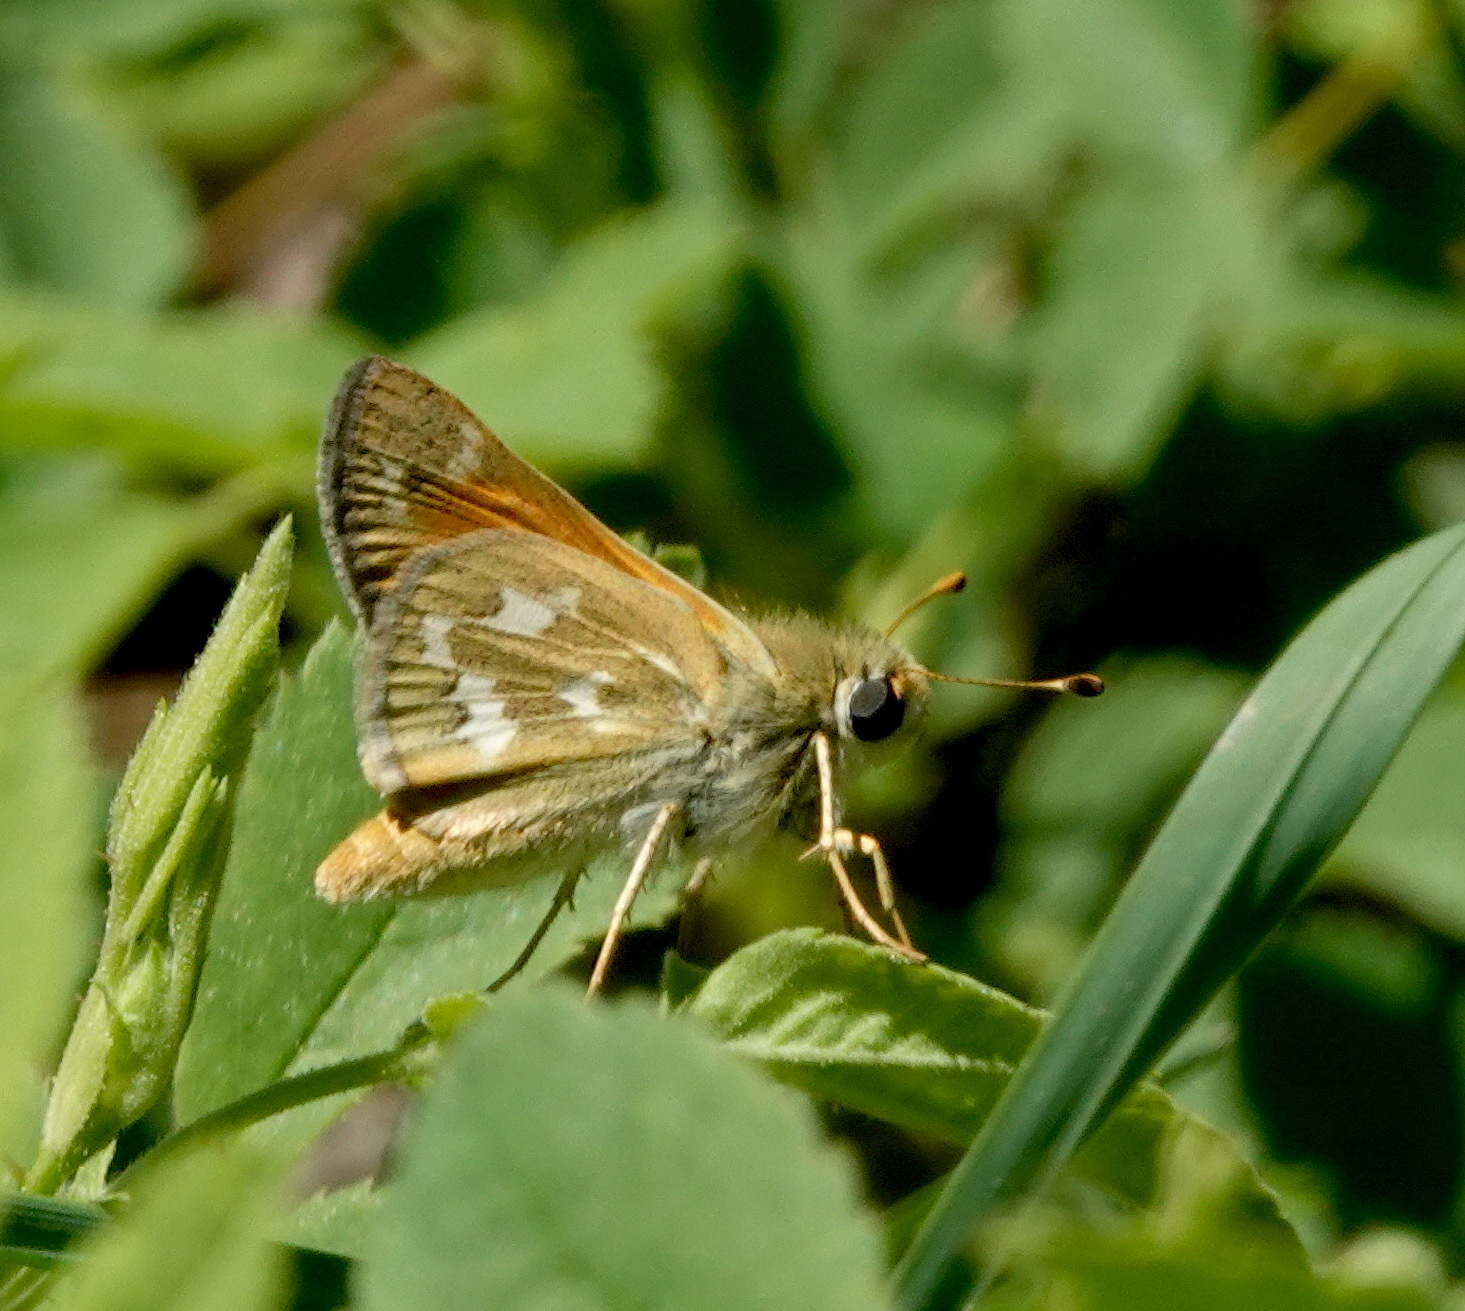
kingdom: Animalia
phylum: Arthropoda
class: Insecta
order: Lepidoptera
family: Hesperiidae
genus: Hesperia
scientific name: Hesperia comma
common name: Common branded skipper
